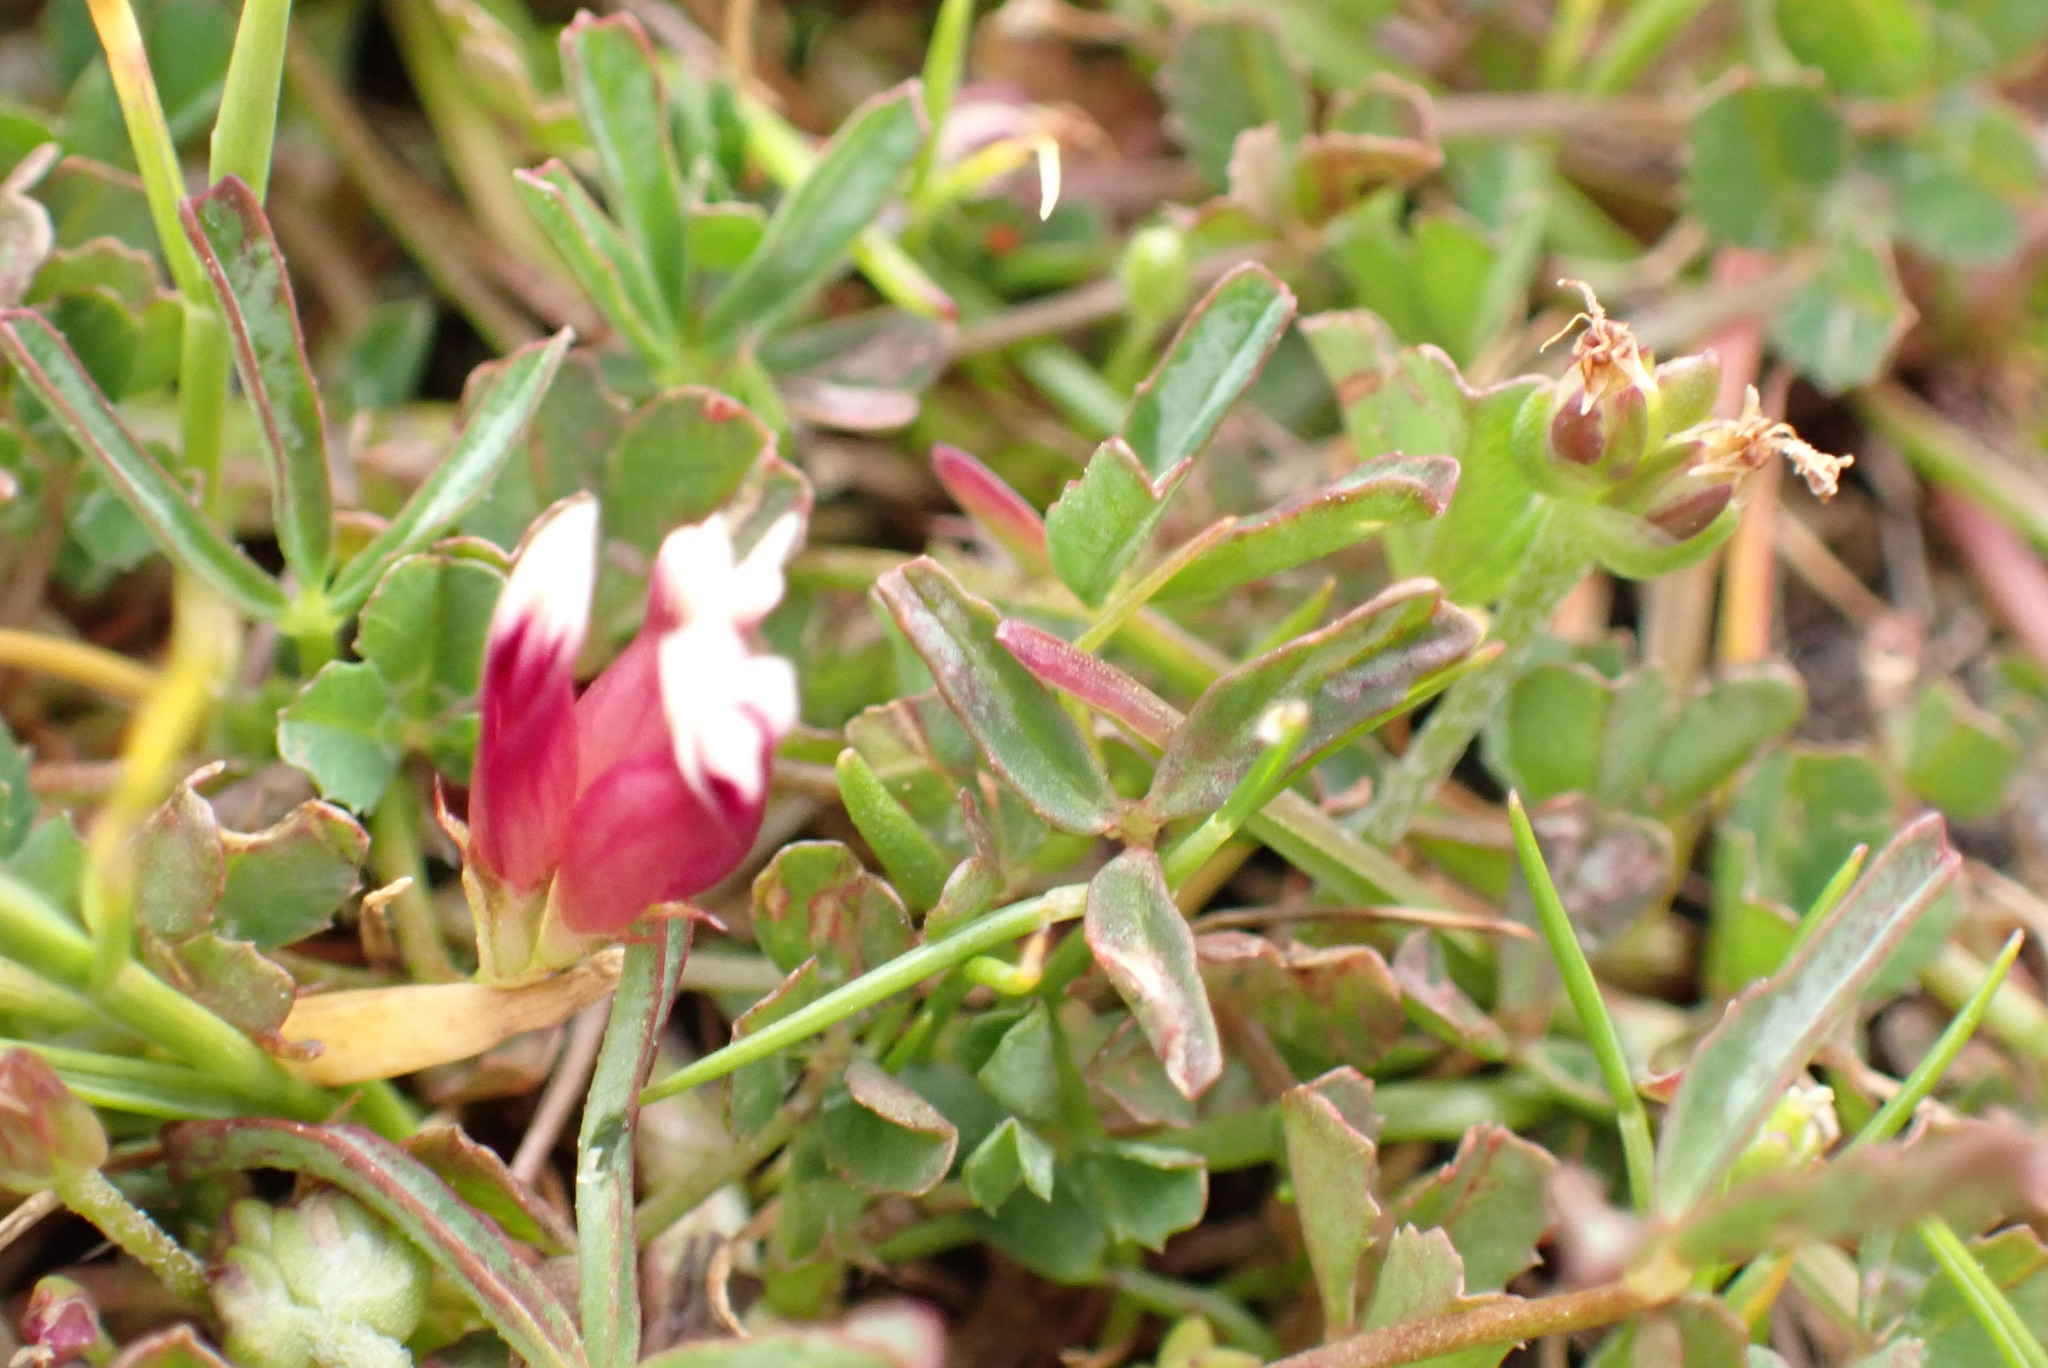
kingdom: Plantae
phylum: Tracheophyta
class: Magnoliopsida
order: Fabales
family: Fabaceae
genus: Trifolium
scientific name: Trifolium variegatum
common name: Whitetip clover
